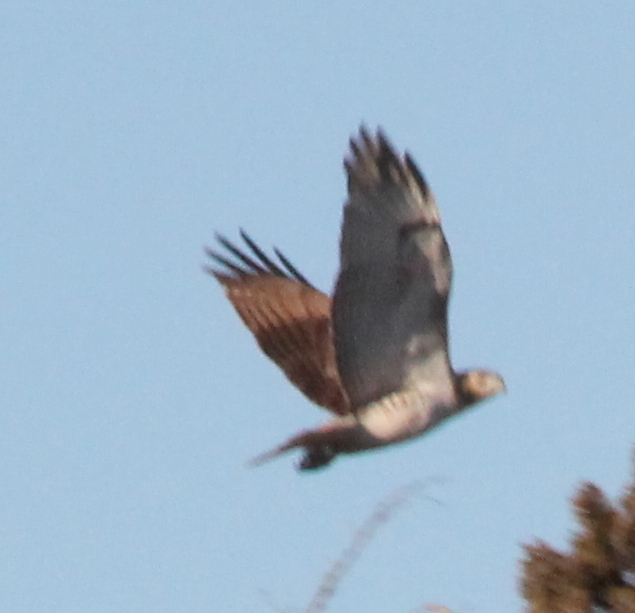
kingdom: Animalia
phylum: Chordata
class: Aves
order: Accipitriformes
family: Accipitridae
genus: Buteo
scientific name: Buteo jamaicensis
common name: Red-tailed hawk
